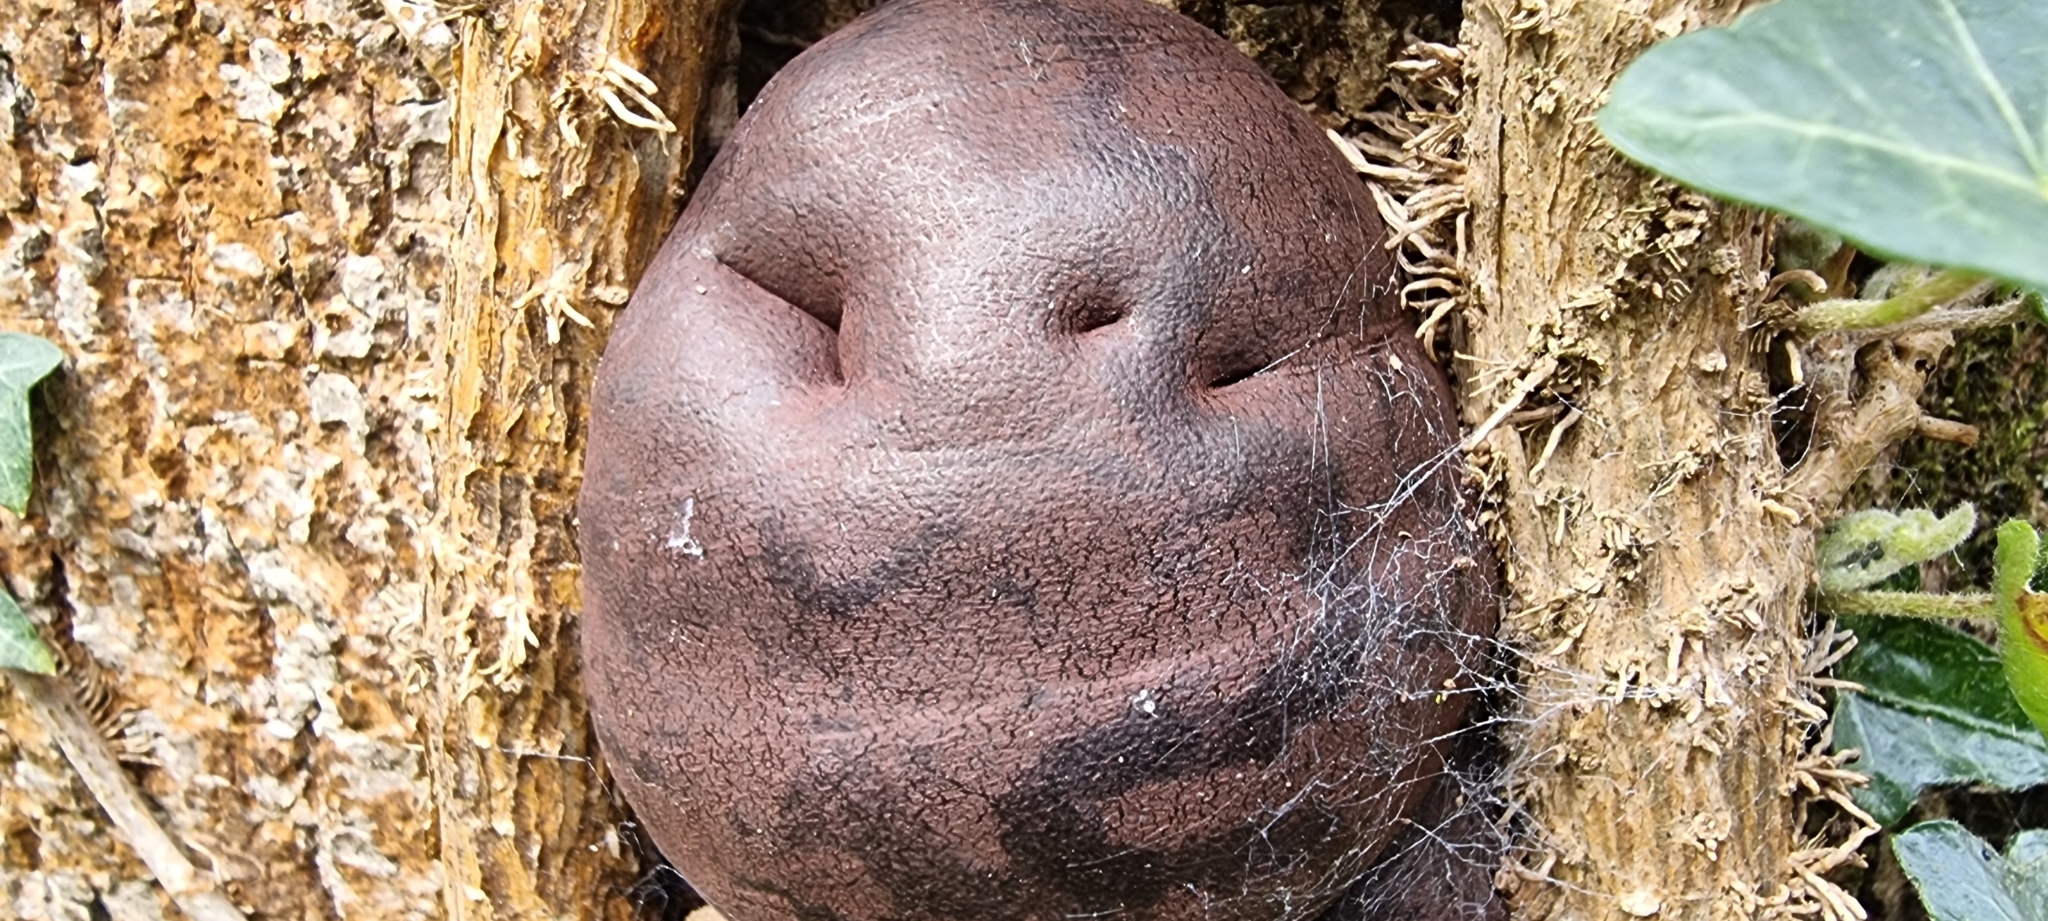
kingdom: Fungi
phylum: Ascomycota
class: Sordariomycetes
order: Xylariales
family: Hypoxylaceae
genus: Daldinia
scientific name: Daldinia concentrica
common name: Cramp balls
